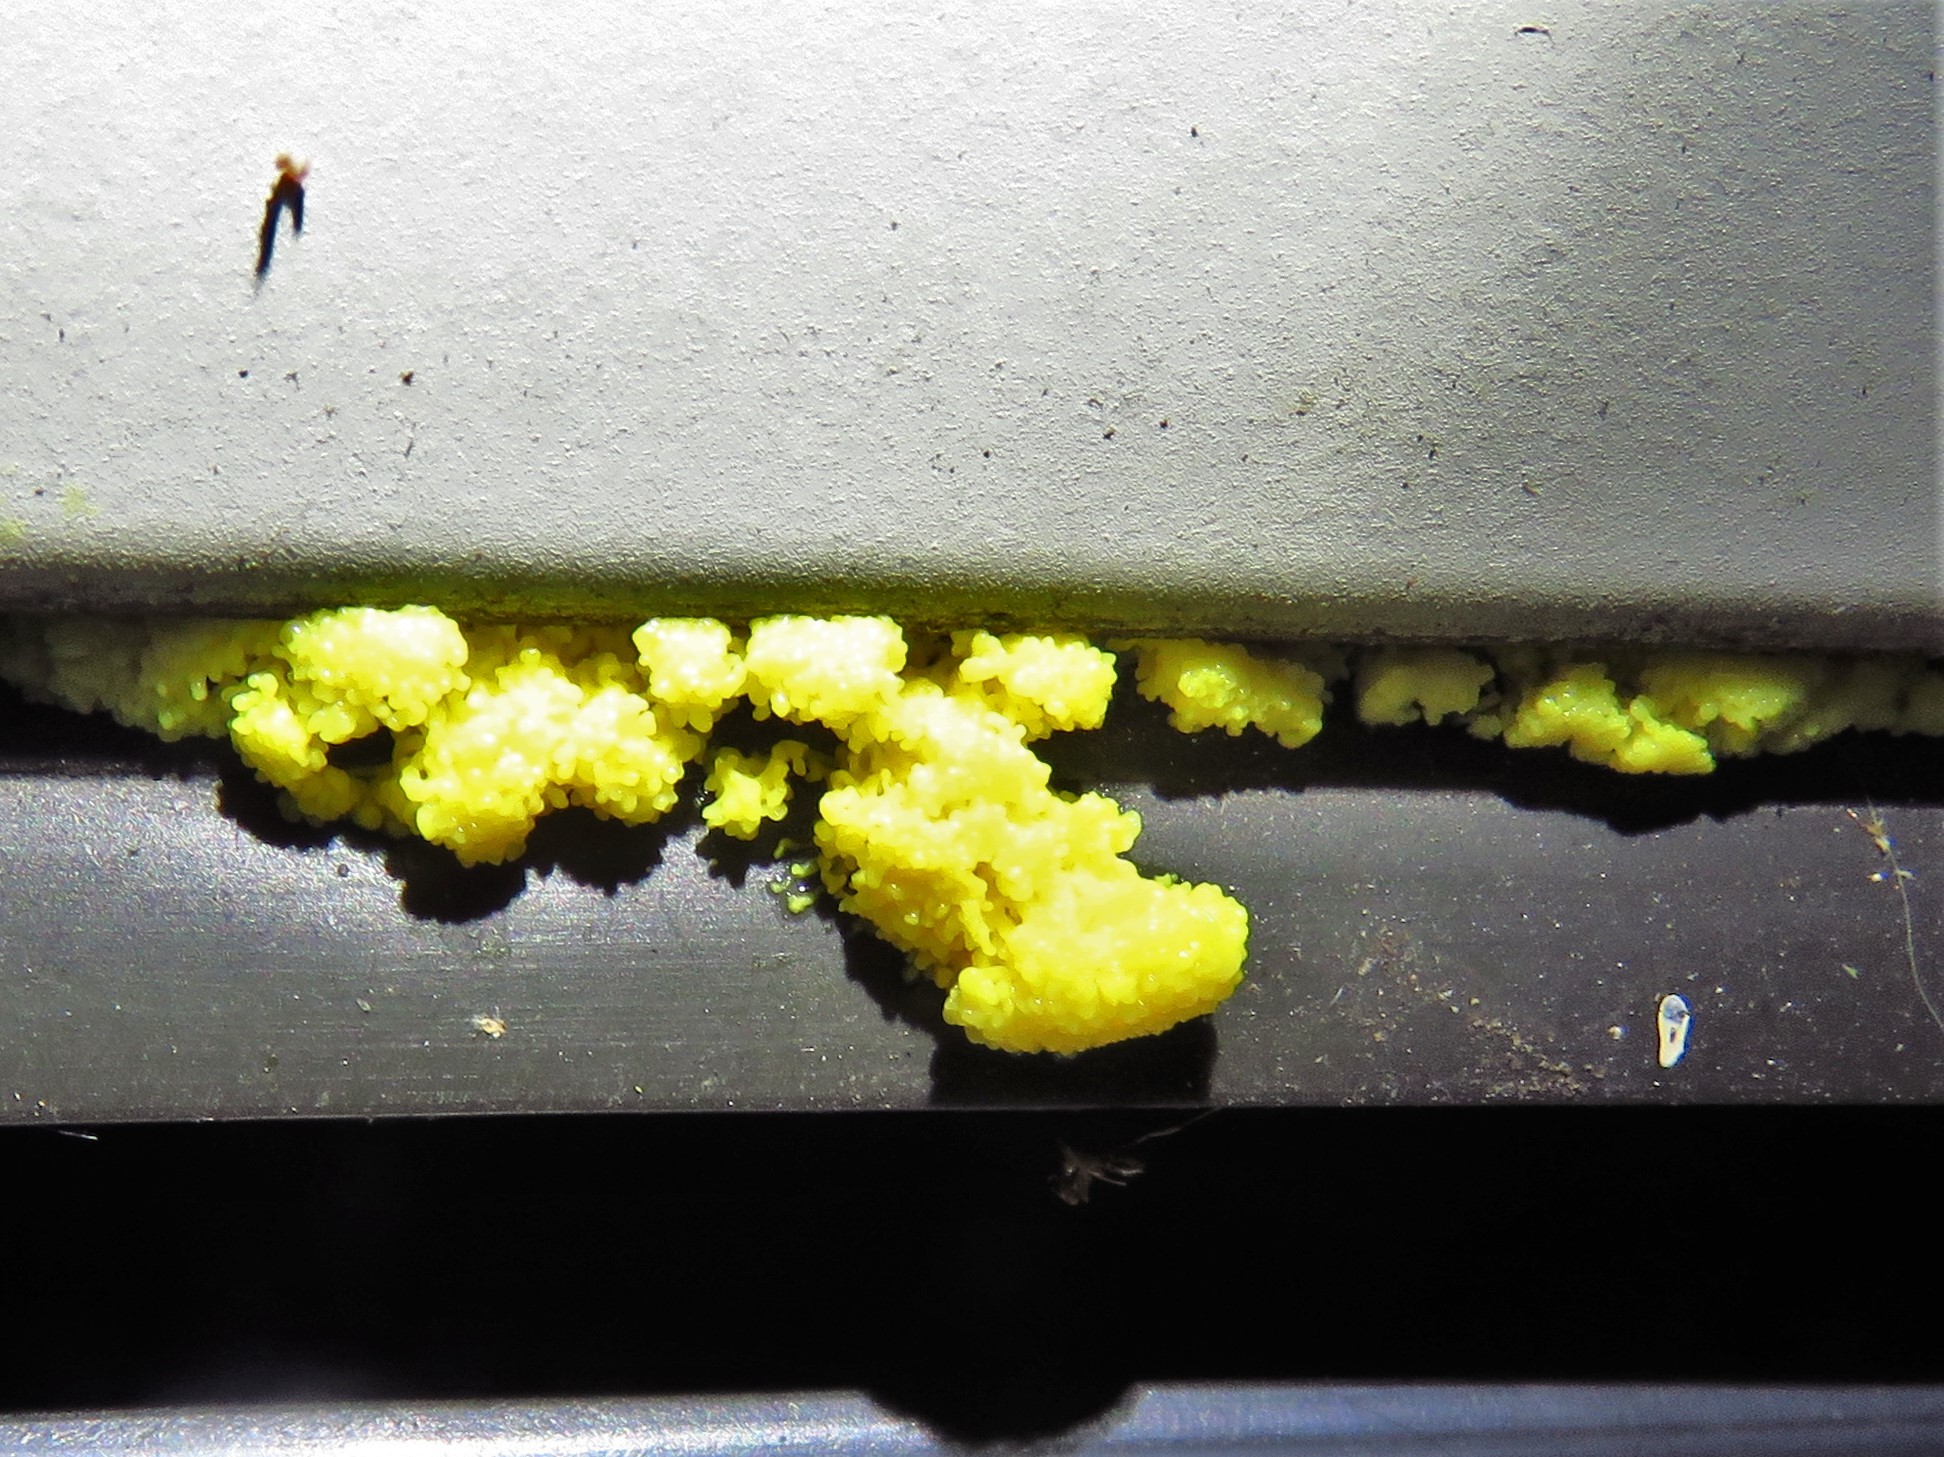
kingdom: Protozoa
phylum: Mycetozoa
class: Myxomycetes
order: Physarales
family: Physaraceae
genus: Fuligo
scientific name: Fuligo septica
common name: Dog vomit slime mold
